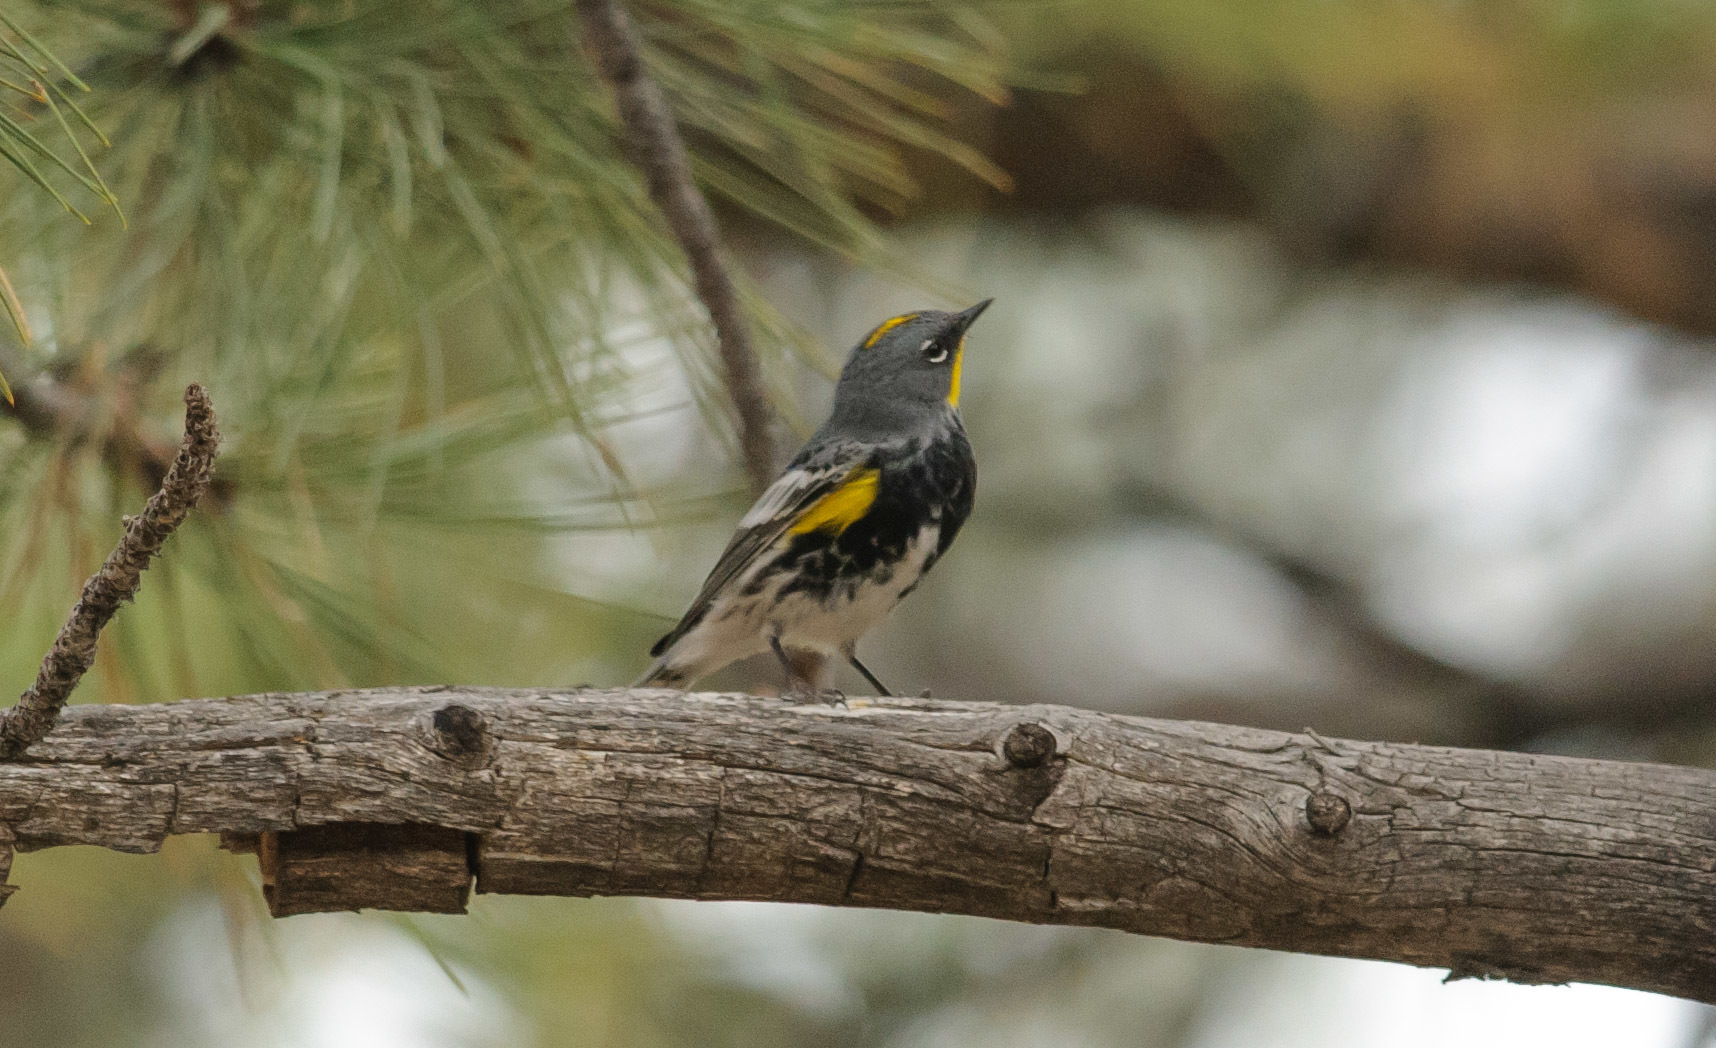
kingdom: Animalia
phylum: Chordata
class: Aves
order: Passeriformes
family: Parulidae
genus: Setophaga
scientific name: Setophaga coronata
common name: Myrtle warbler
